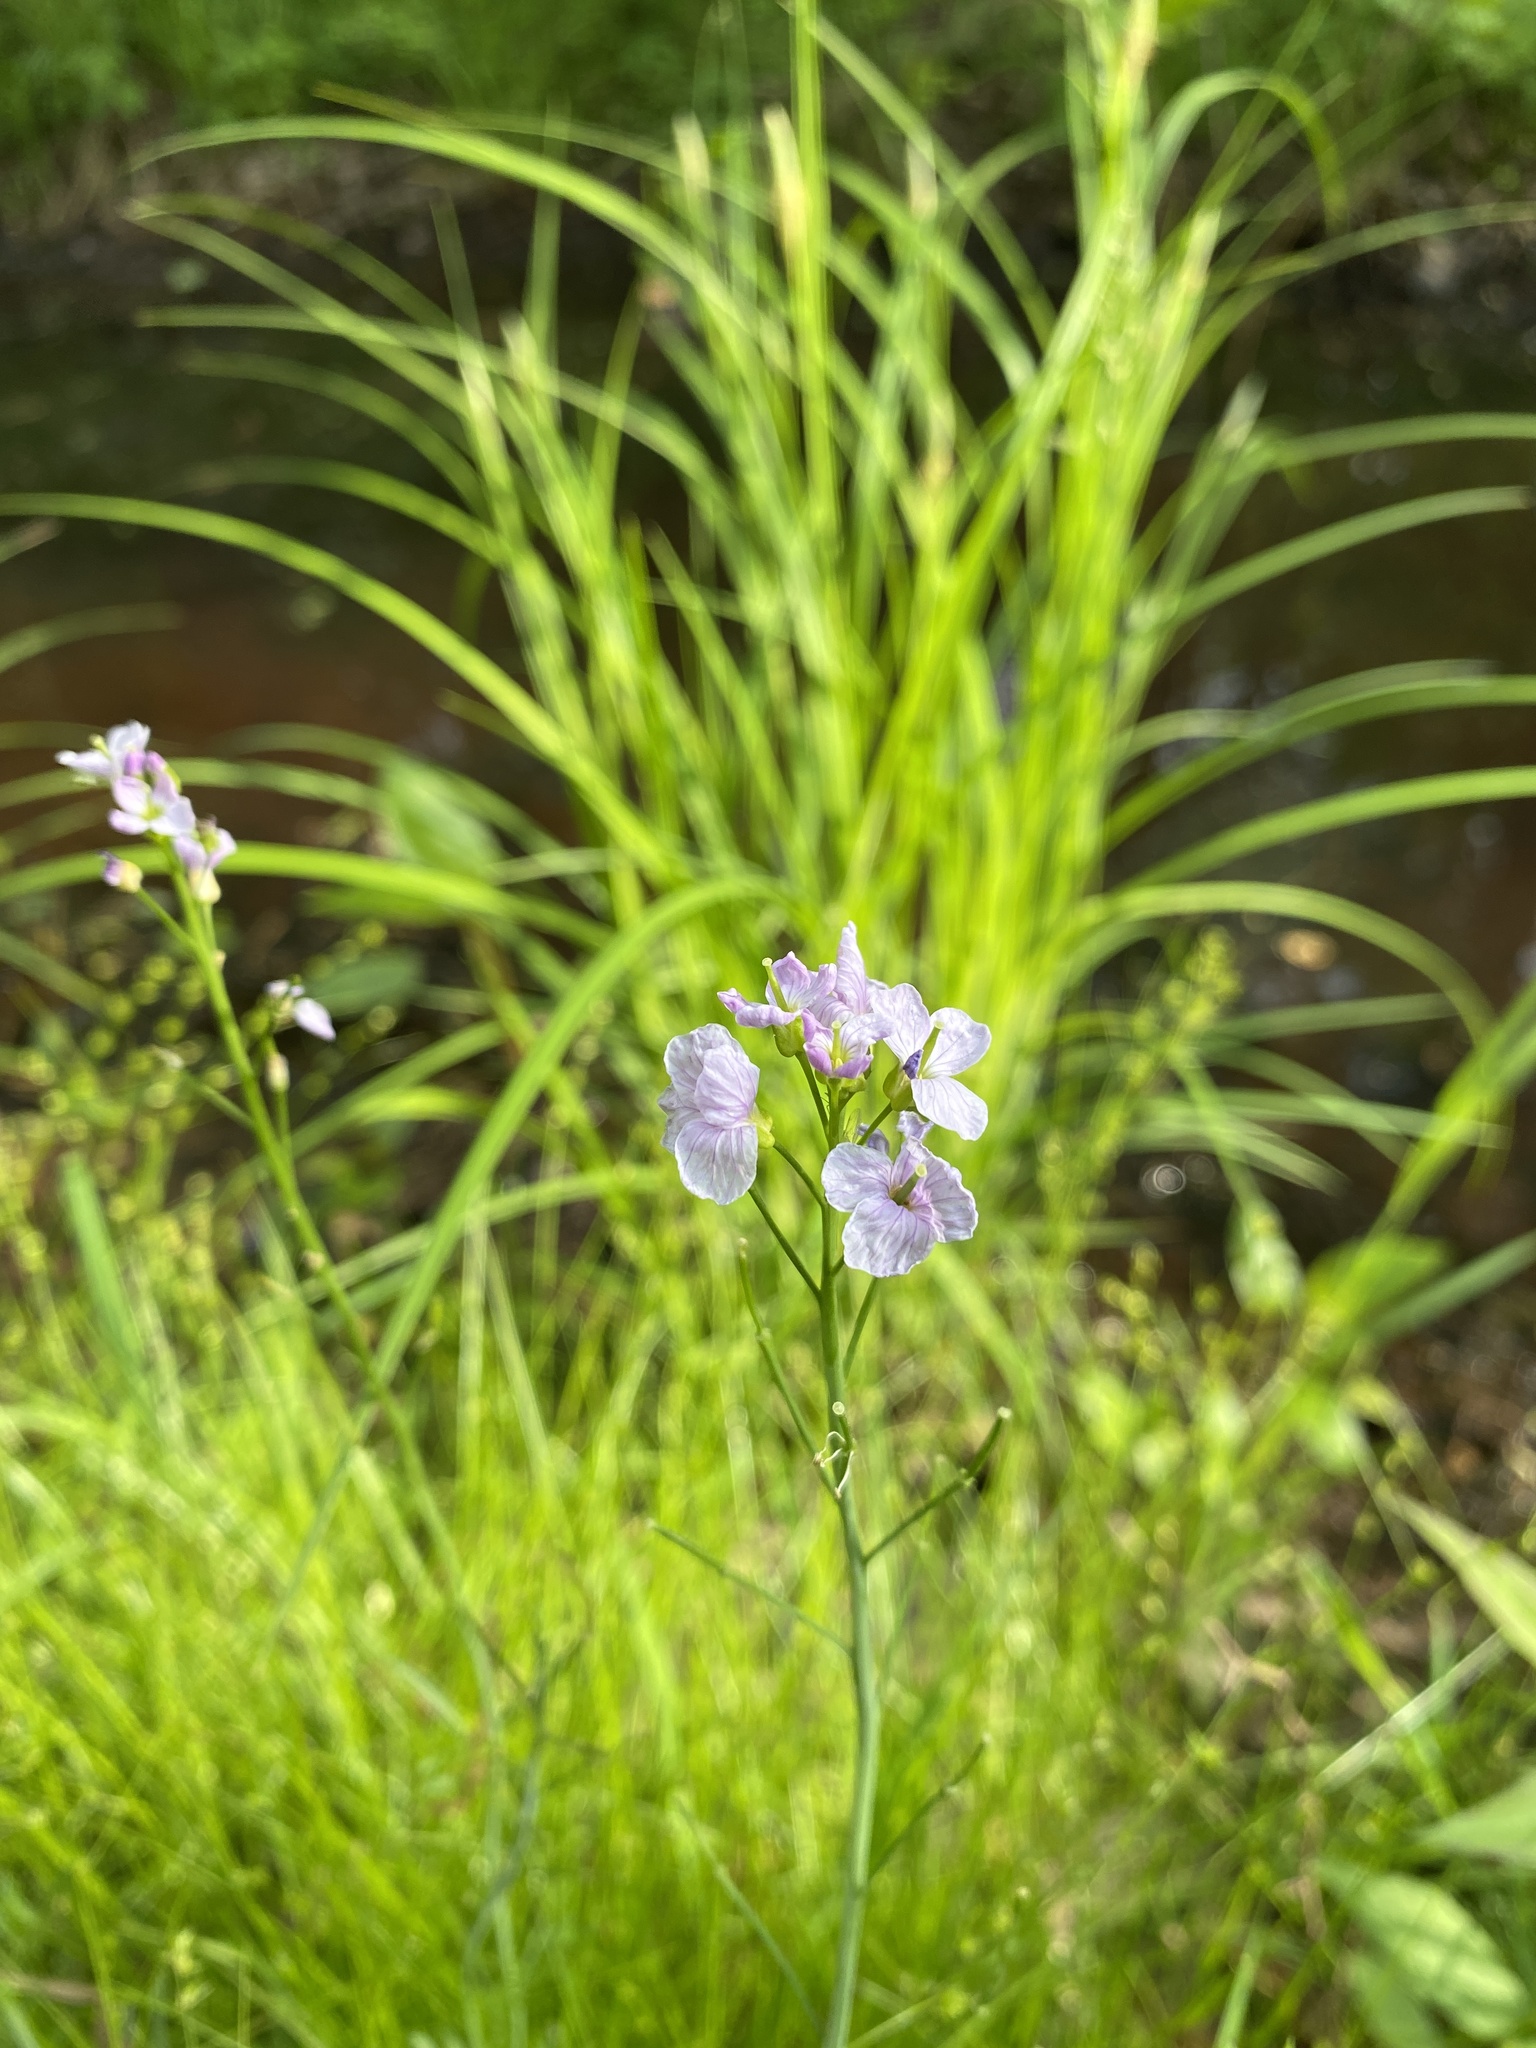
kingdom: Plantae
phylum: Tracheophyta
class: Magnoliopsida
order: Brassicales
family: Brassicaceae
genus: Cardamine
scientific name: Cardamine pratensis
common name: Cuckoo flower
